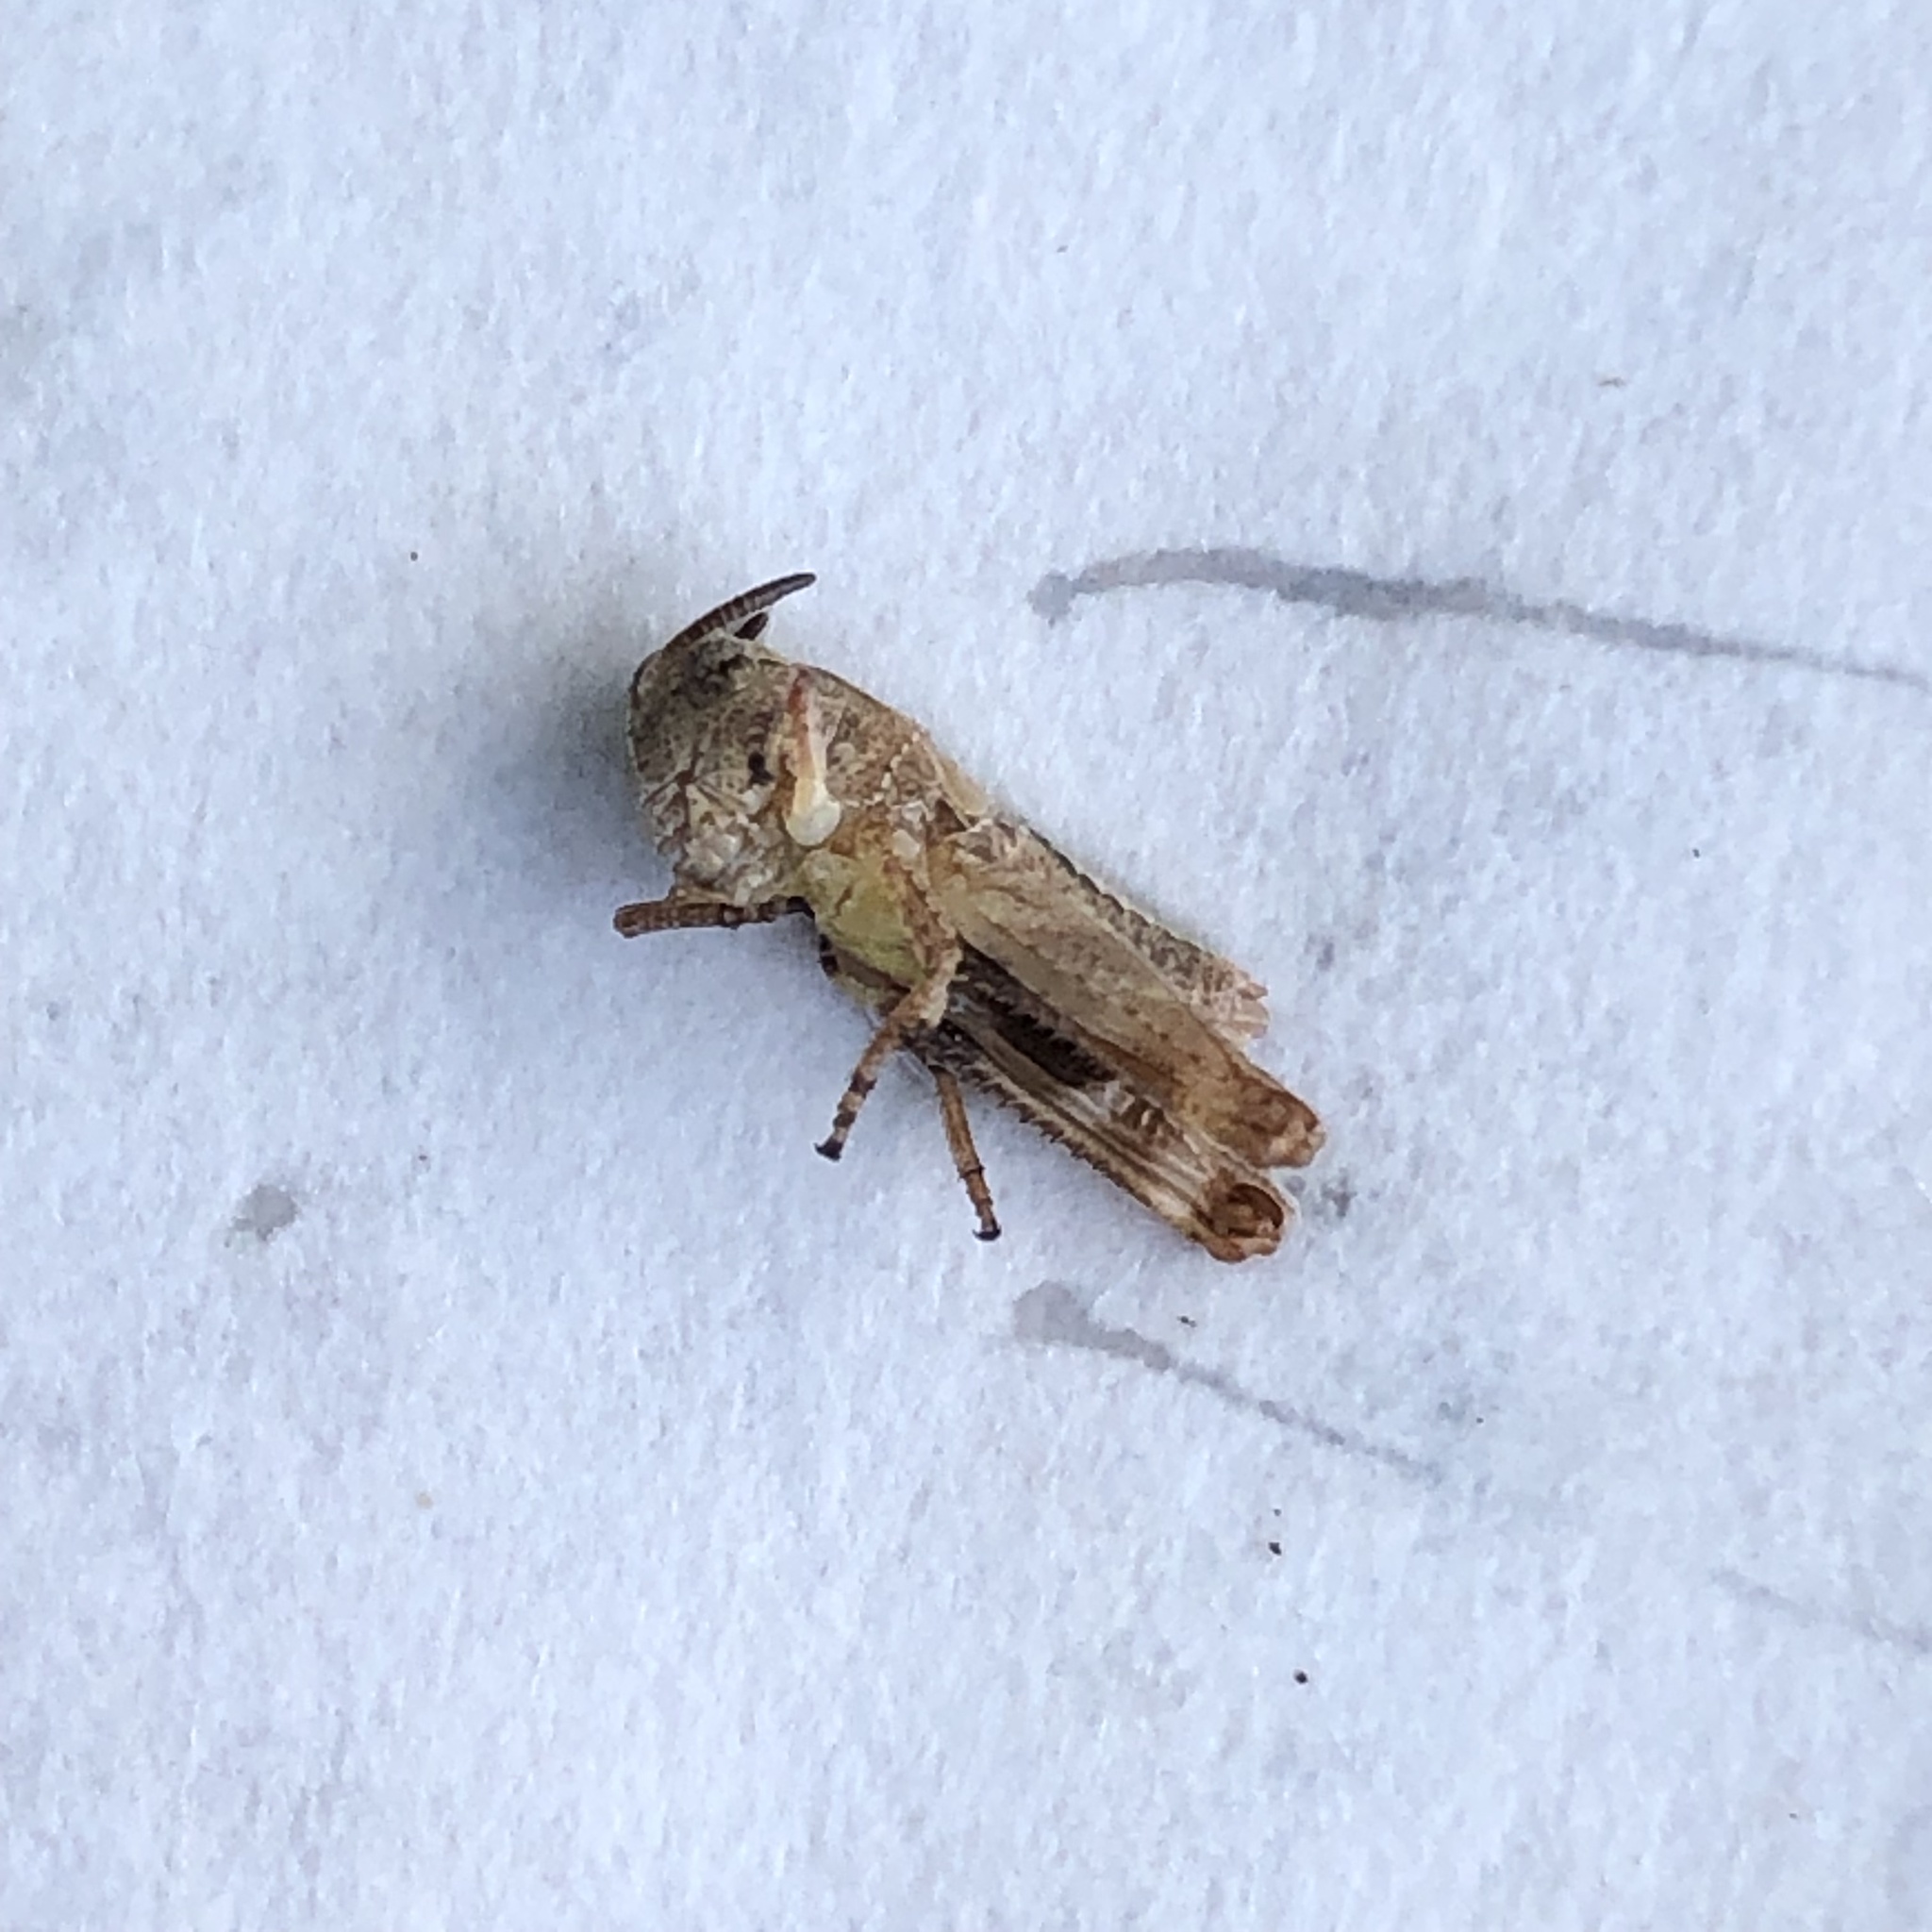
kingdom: Animalia
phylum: Arthropoda
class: Insecta
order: Orthoptera
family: Acrididae
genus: Camnula
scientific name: Camnula pellucida
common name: Clear-winged grasshopper
